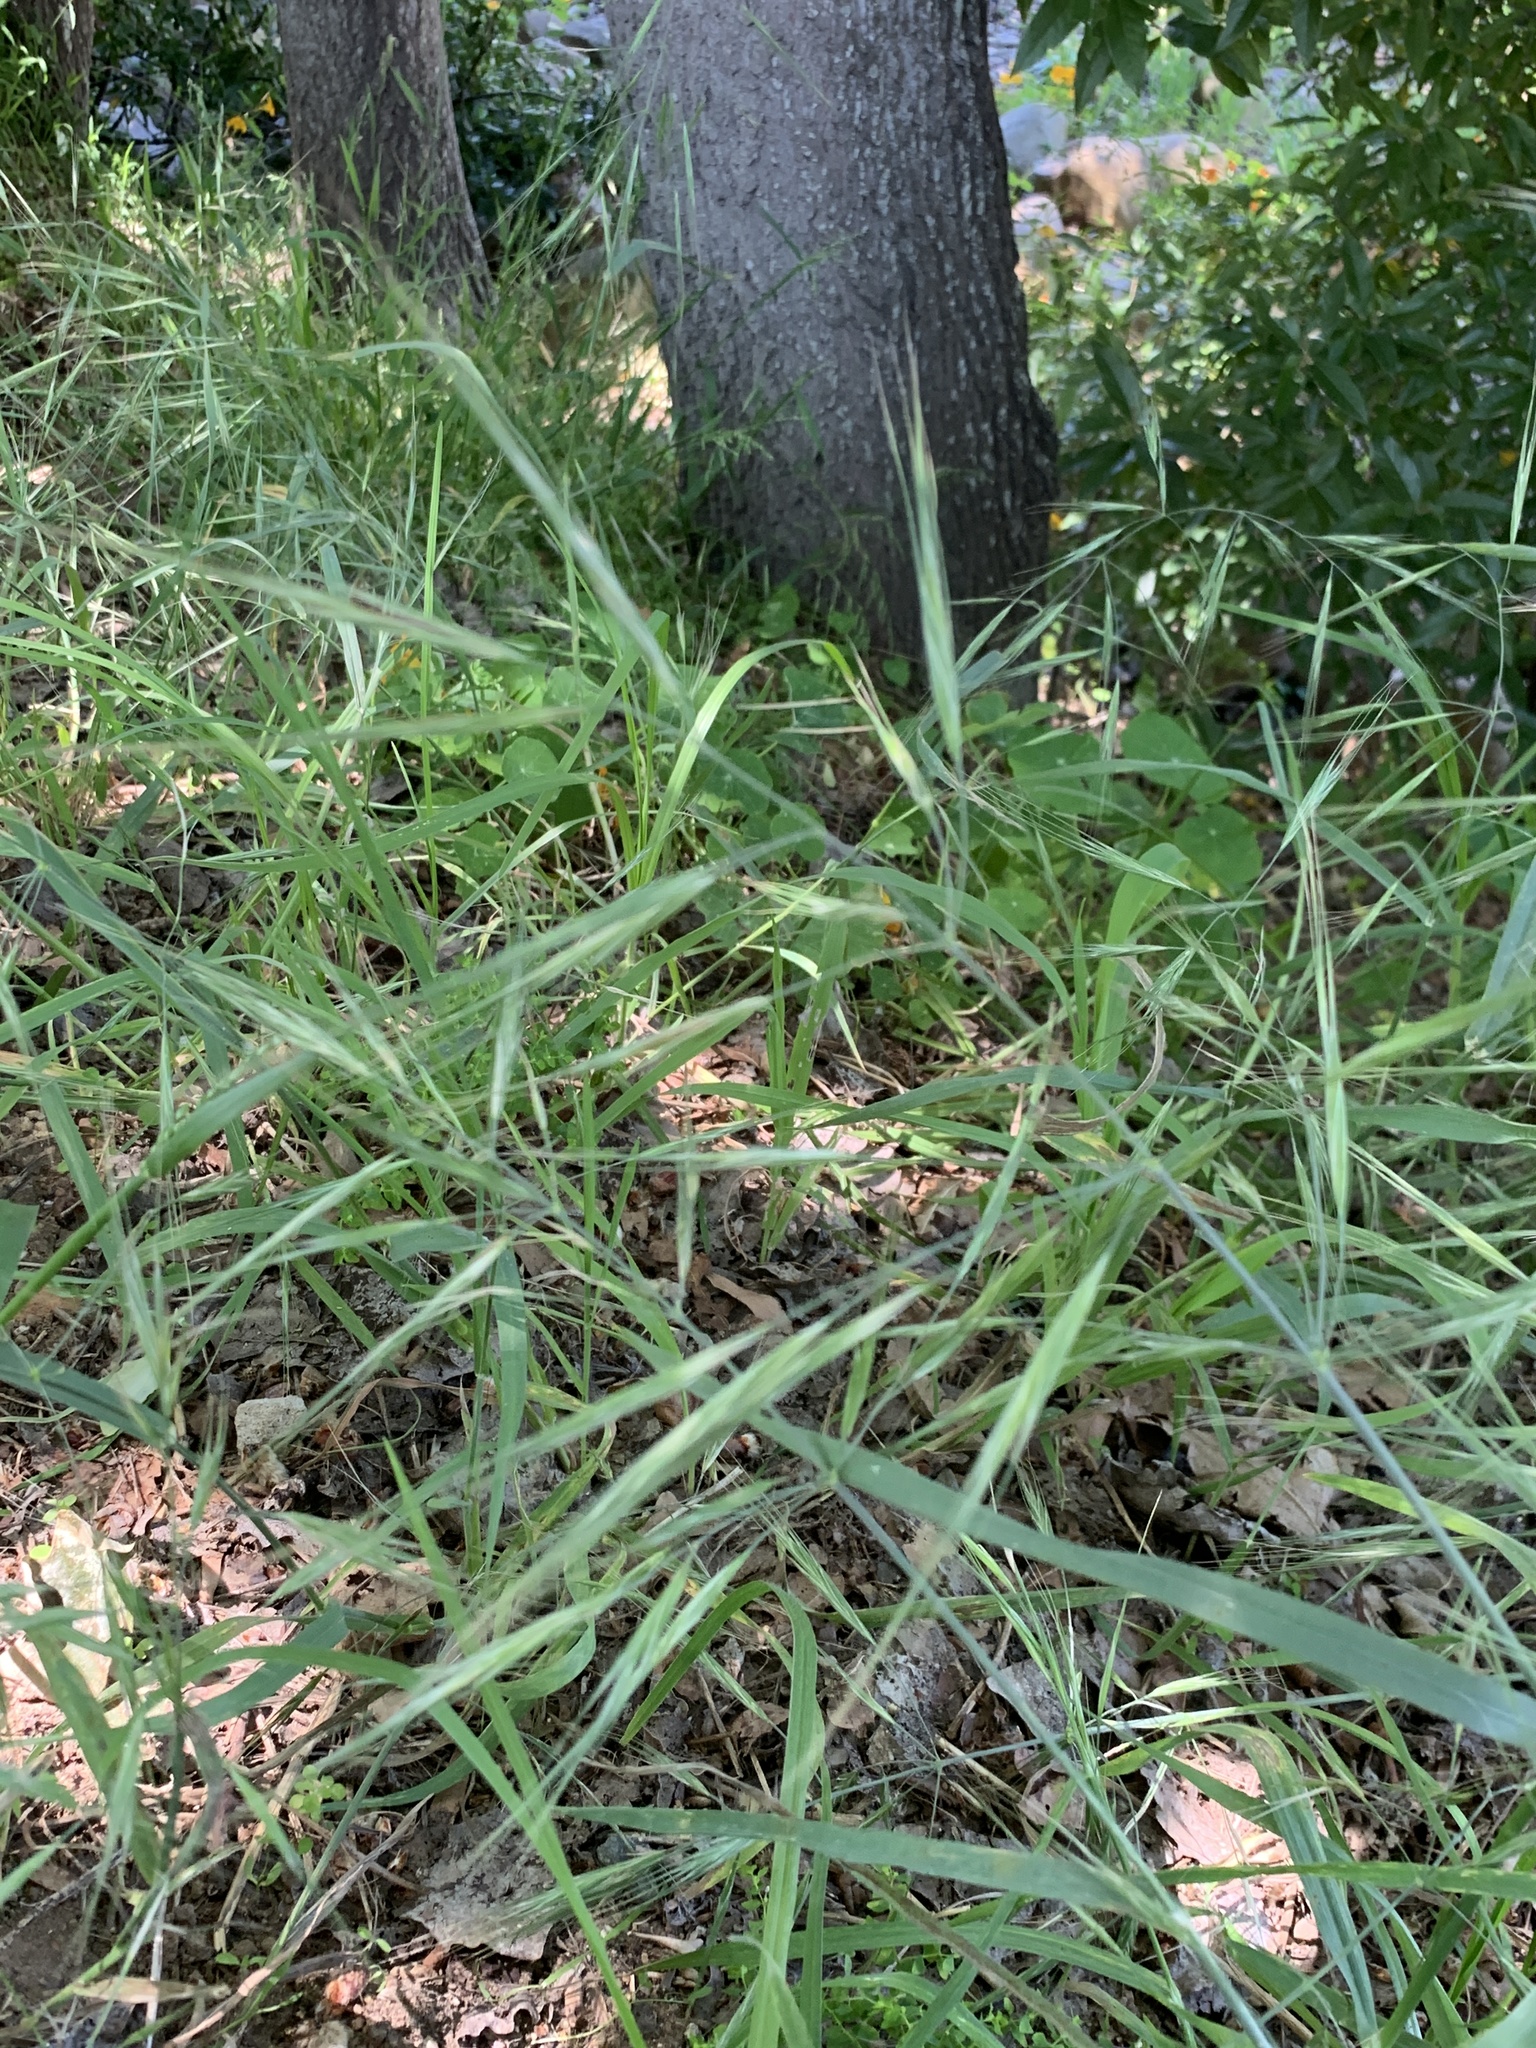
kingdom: Plantae
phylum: Tracheophyta
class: Liliopsida
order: Poales
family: Poaceae
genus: Bromus
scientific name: Bromus diandrus
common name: Ripgut brome
